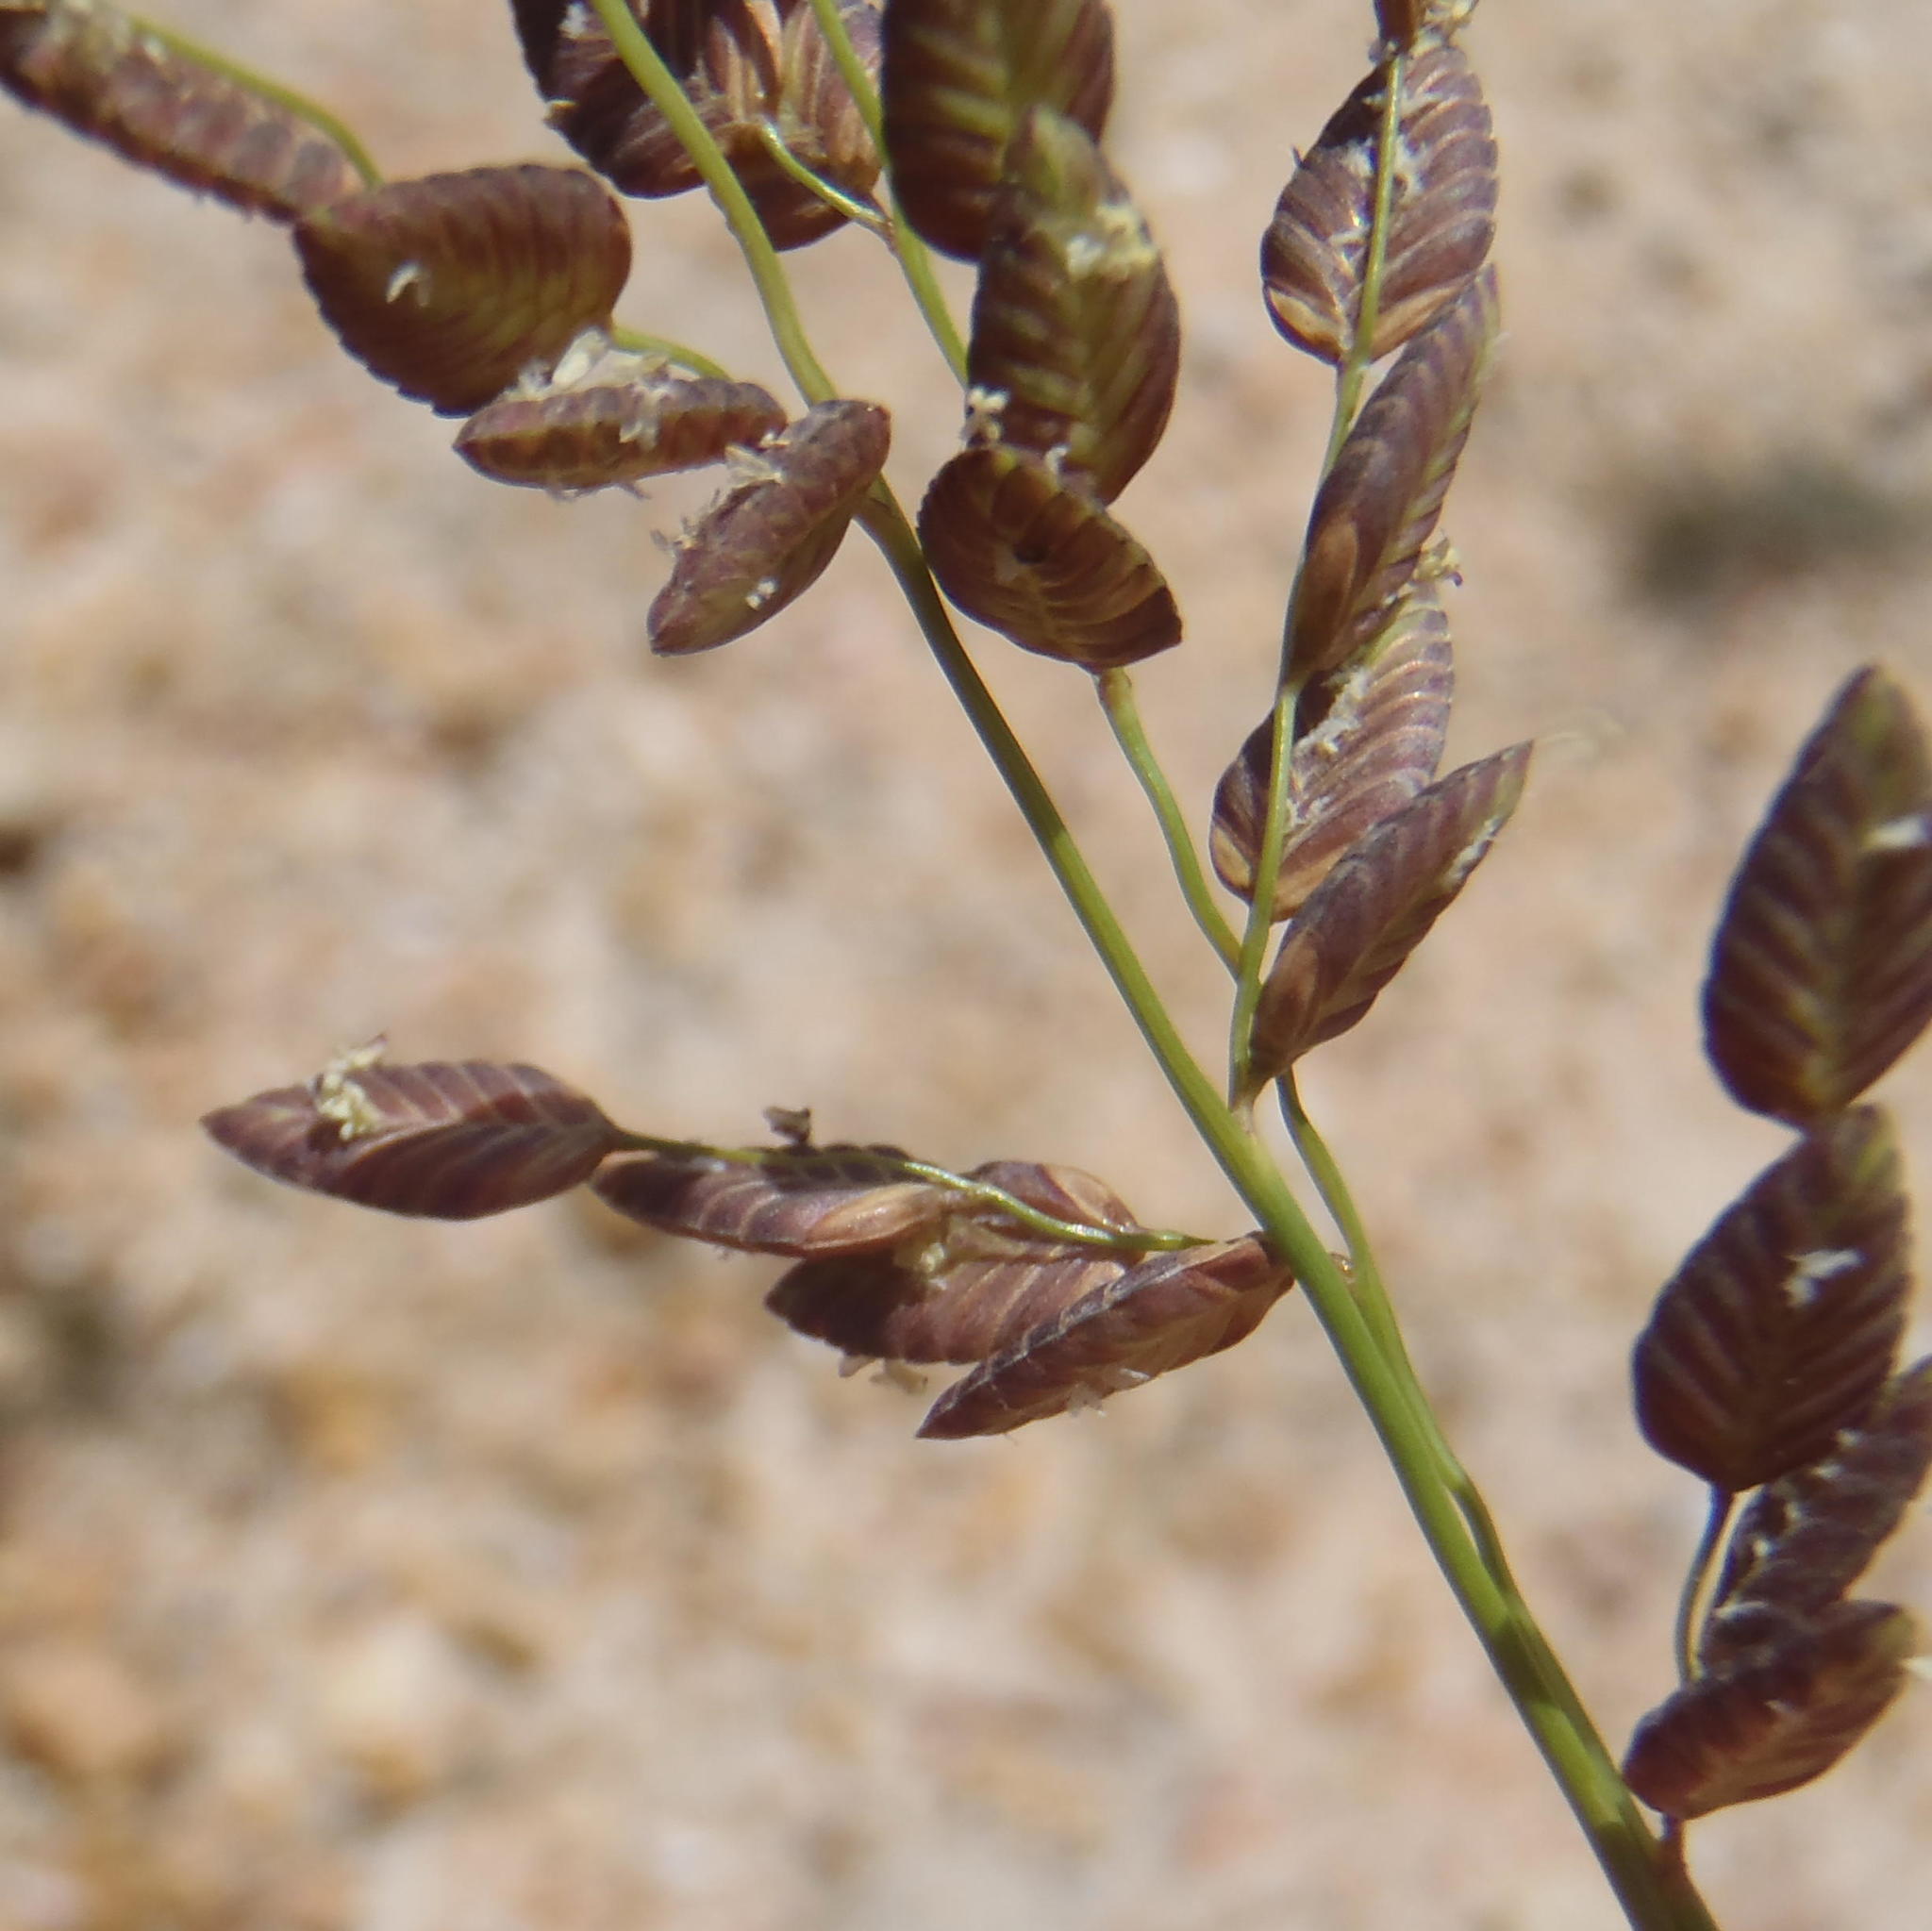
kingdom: Plantae
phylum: Tracheophyta
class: Liliopsida
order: Poales
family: Poaceae
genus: Eragrostis
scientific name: Eragrostis capensis
